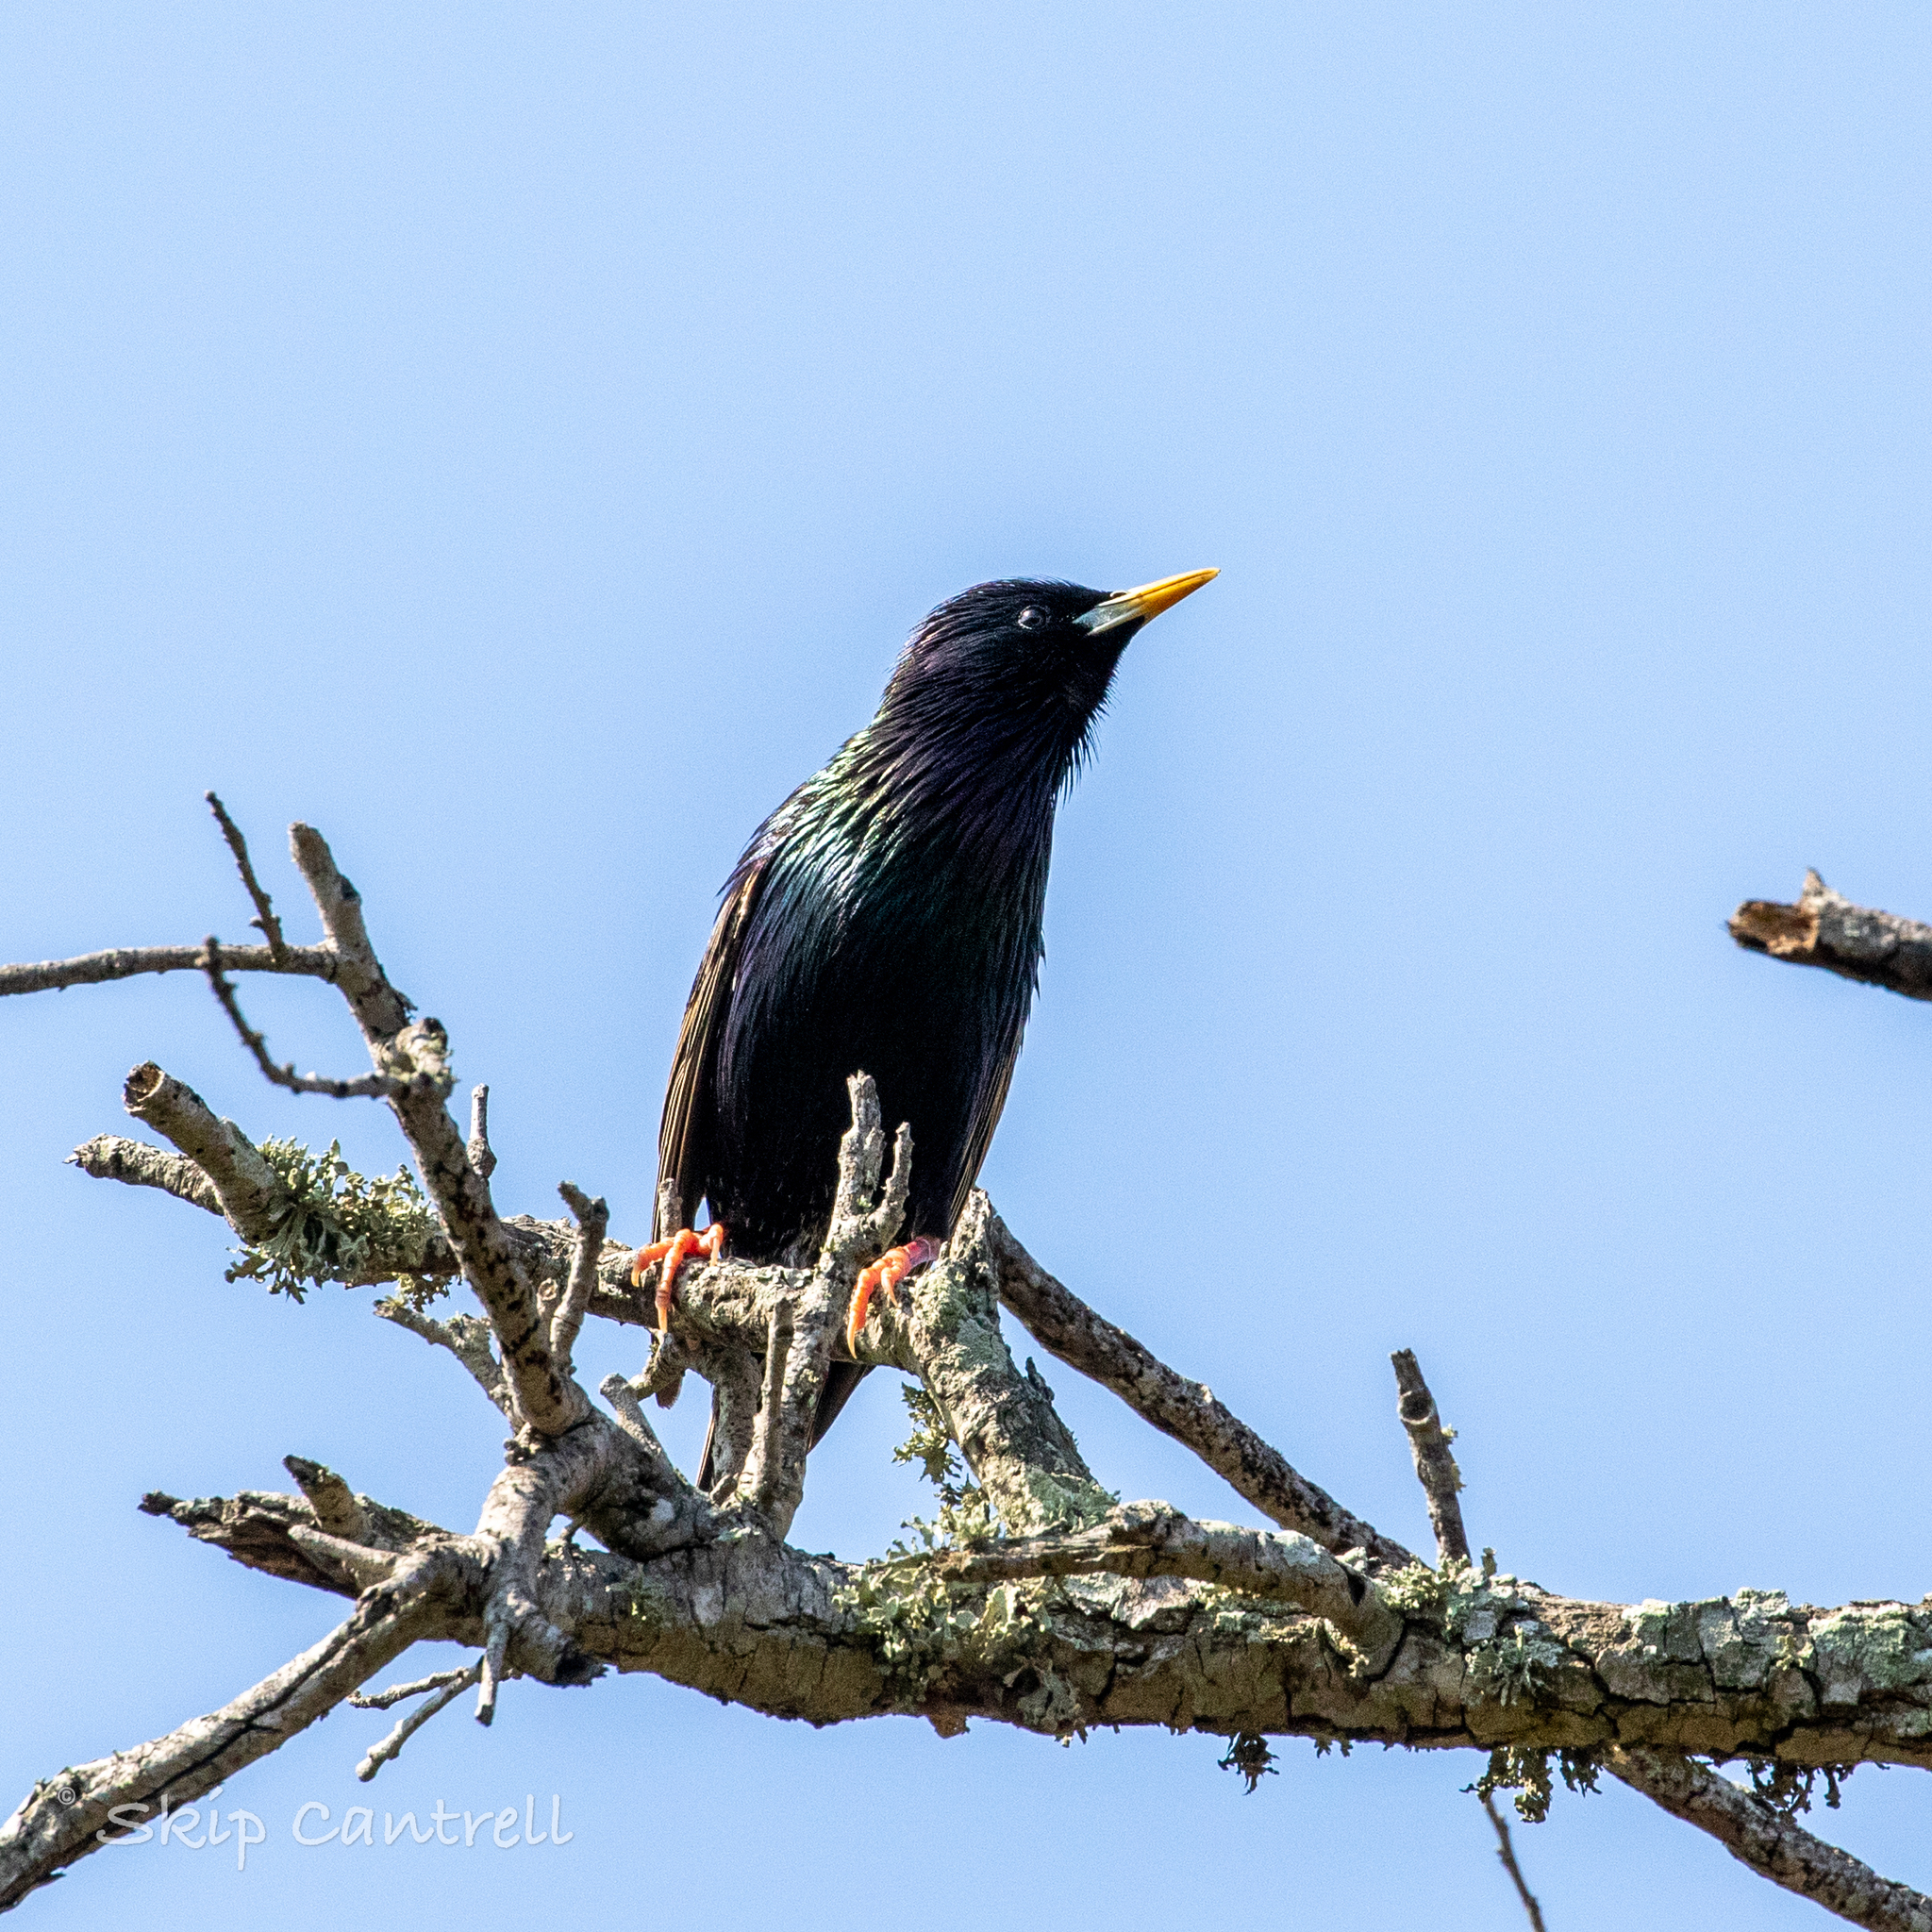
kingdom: Animalia
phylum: Chordata
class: Aves
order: Passeriformes
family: Sturnidae
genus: Sturnus
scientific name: Sturnus vulgaris
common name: Common starling
